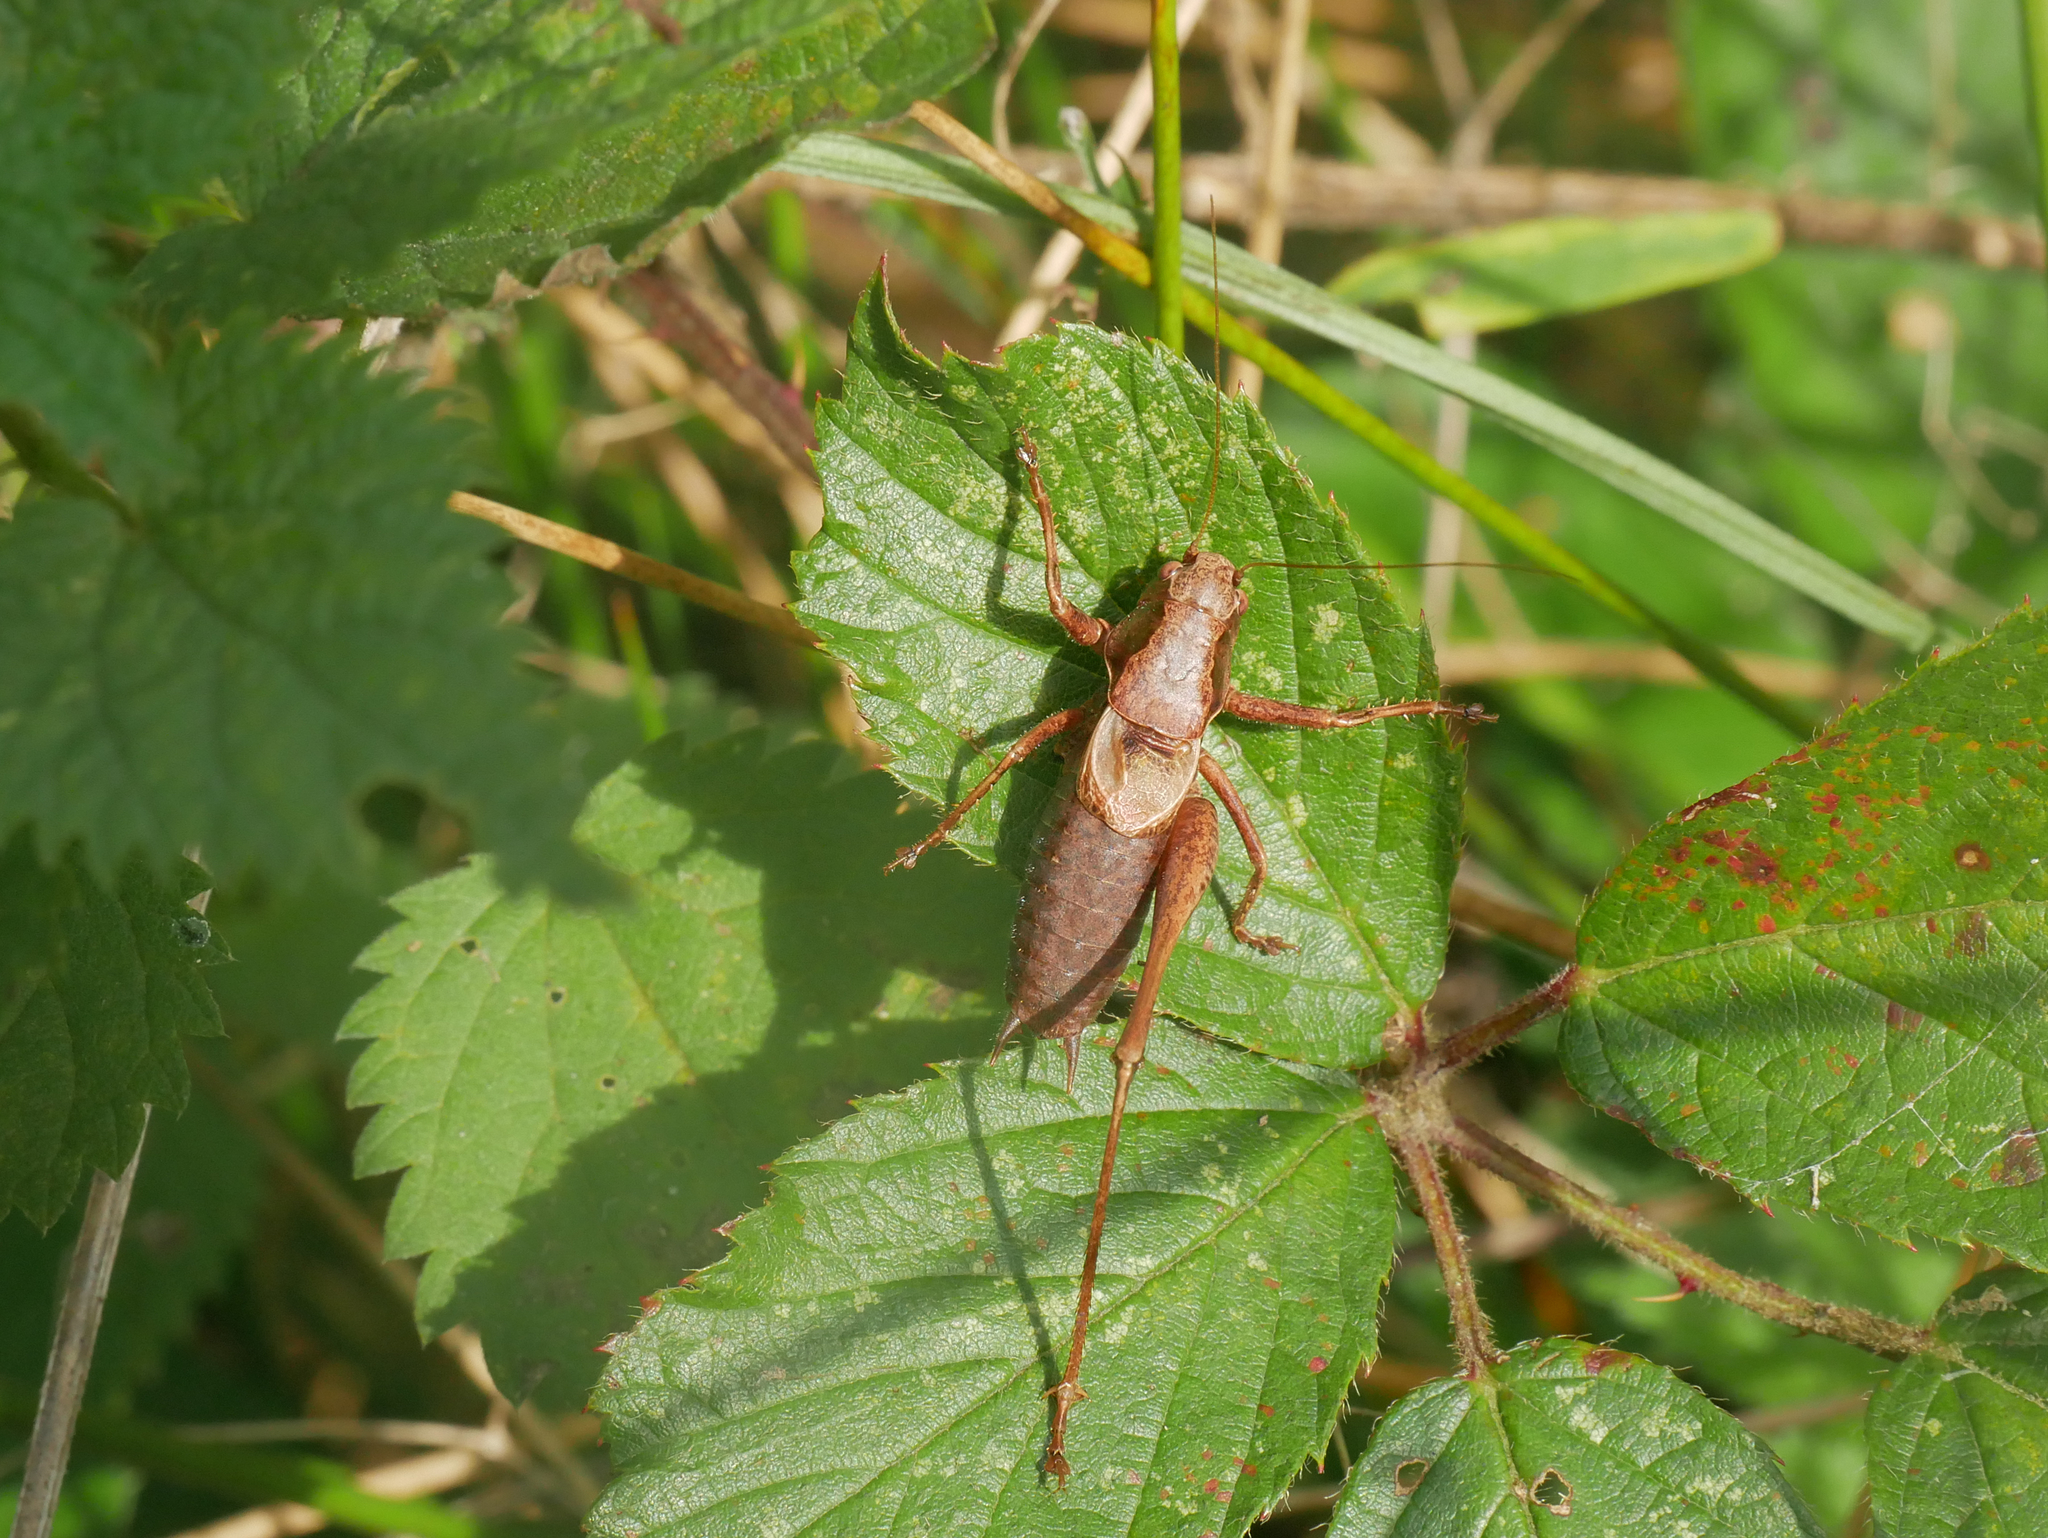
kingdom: Animalia
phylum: Arthropoda
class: Insecta
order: Orthoptera
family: Tettigoniidae
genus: Pholidoptera
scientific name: Pholidoptera griseoaptera
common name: Dark bush-cricket
